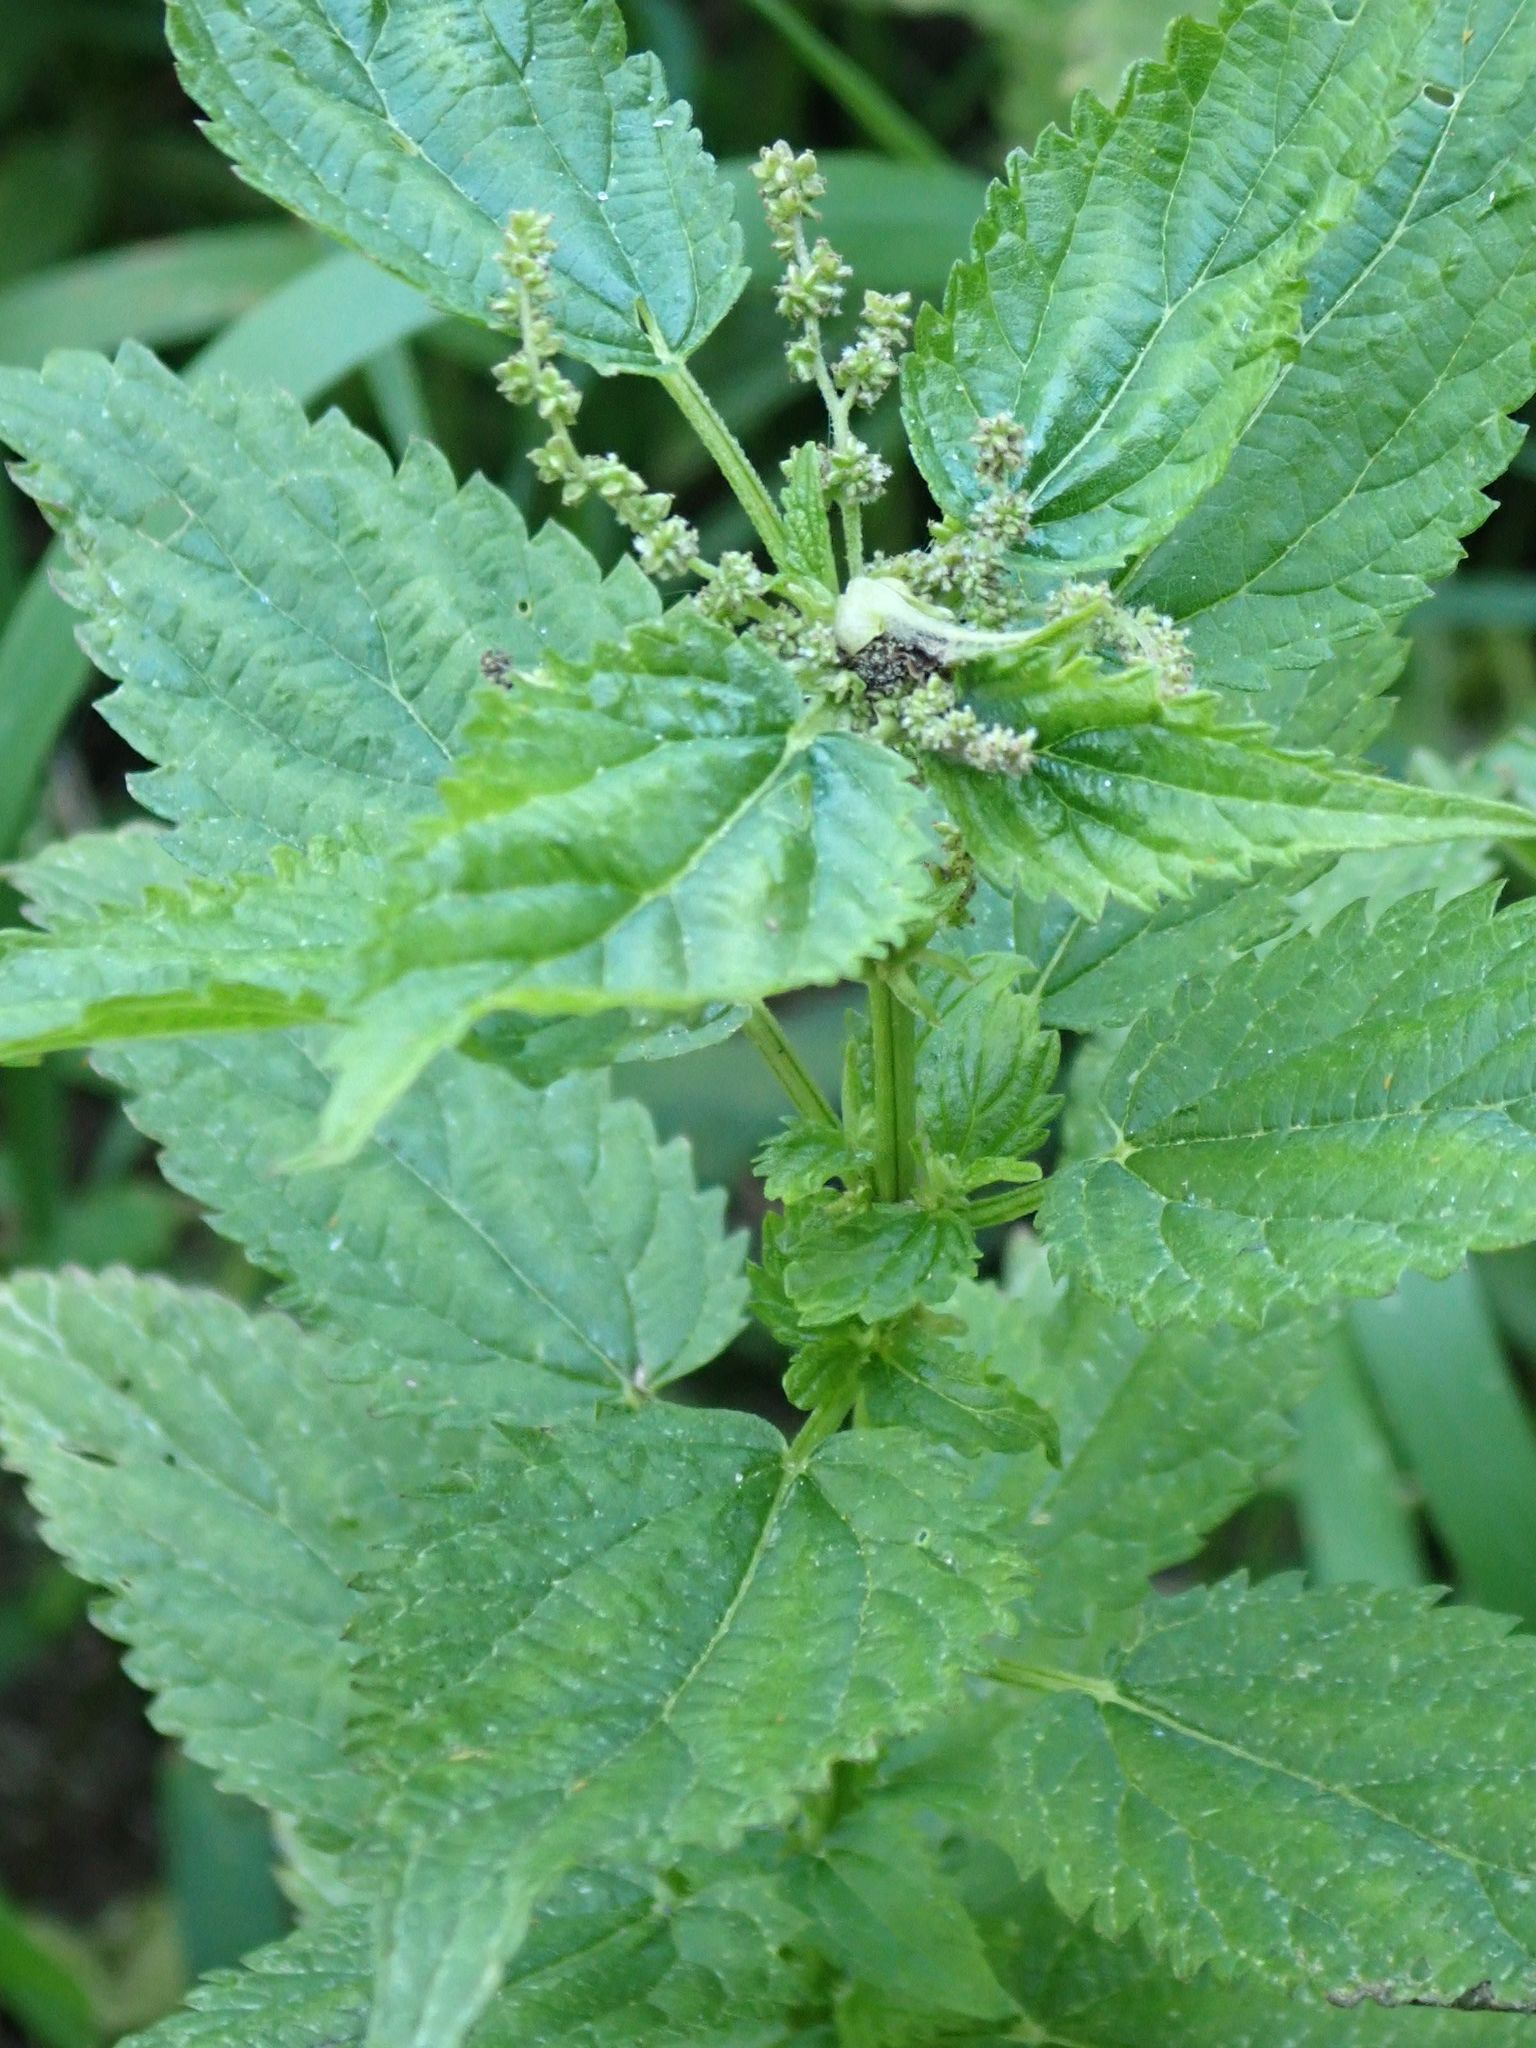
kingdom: Plantae
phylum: Tracheophyta
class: Magnoliopsida
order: Rosales
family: Urticaceae
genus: Urtica
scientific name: Urtica gracilis
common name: Slender stinging nettle
